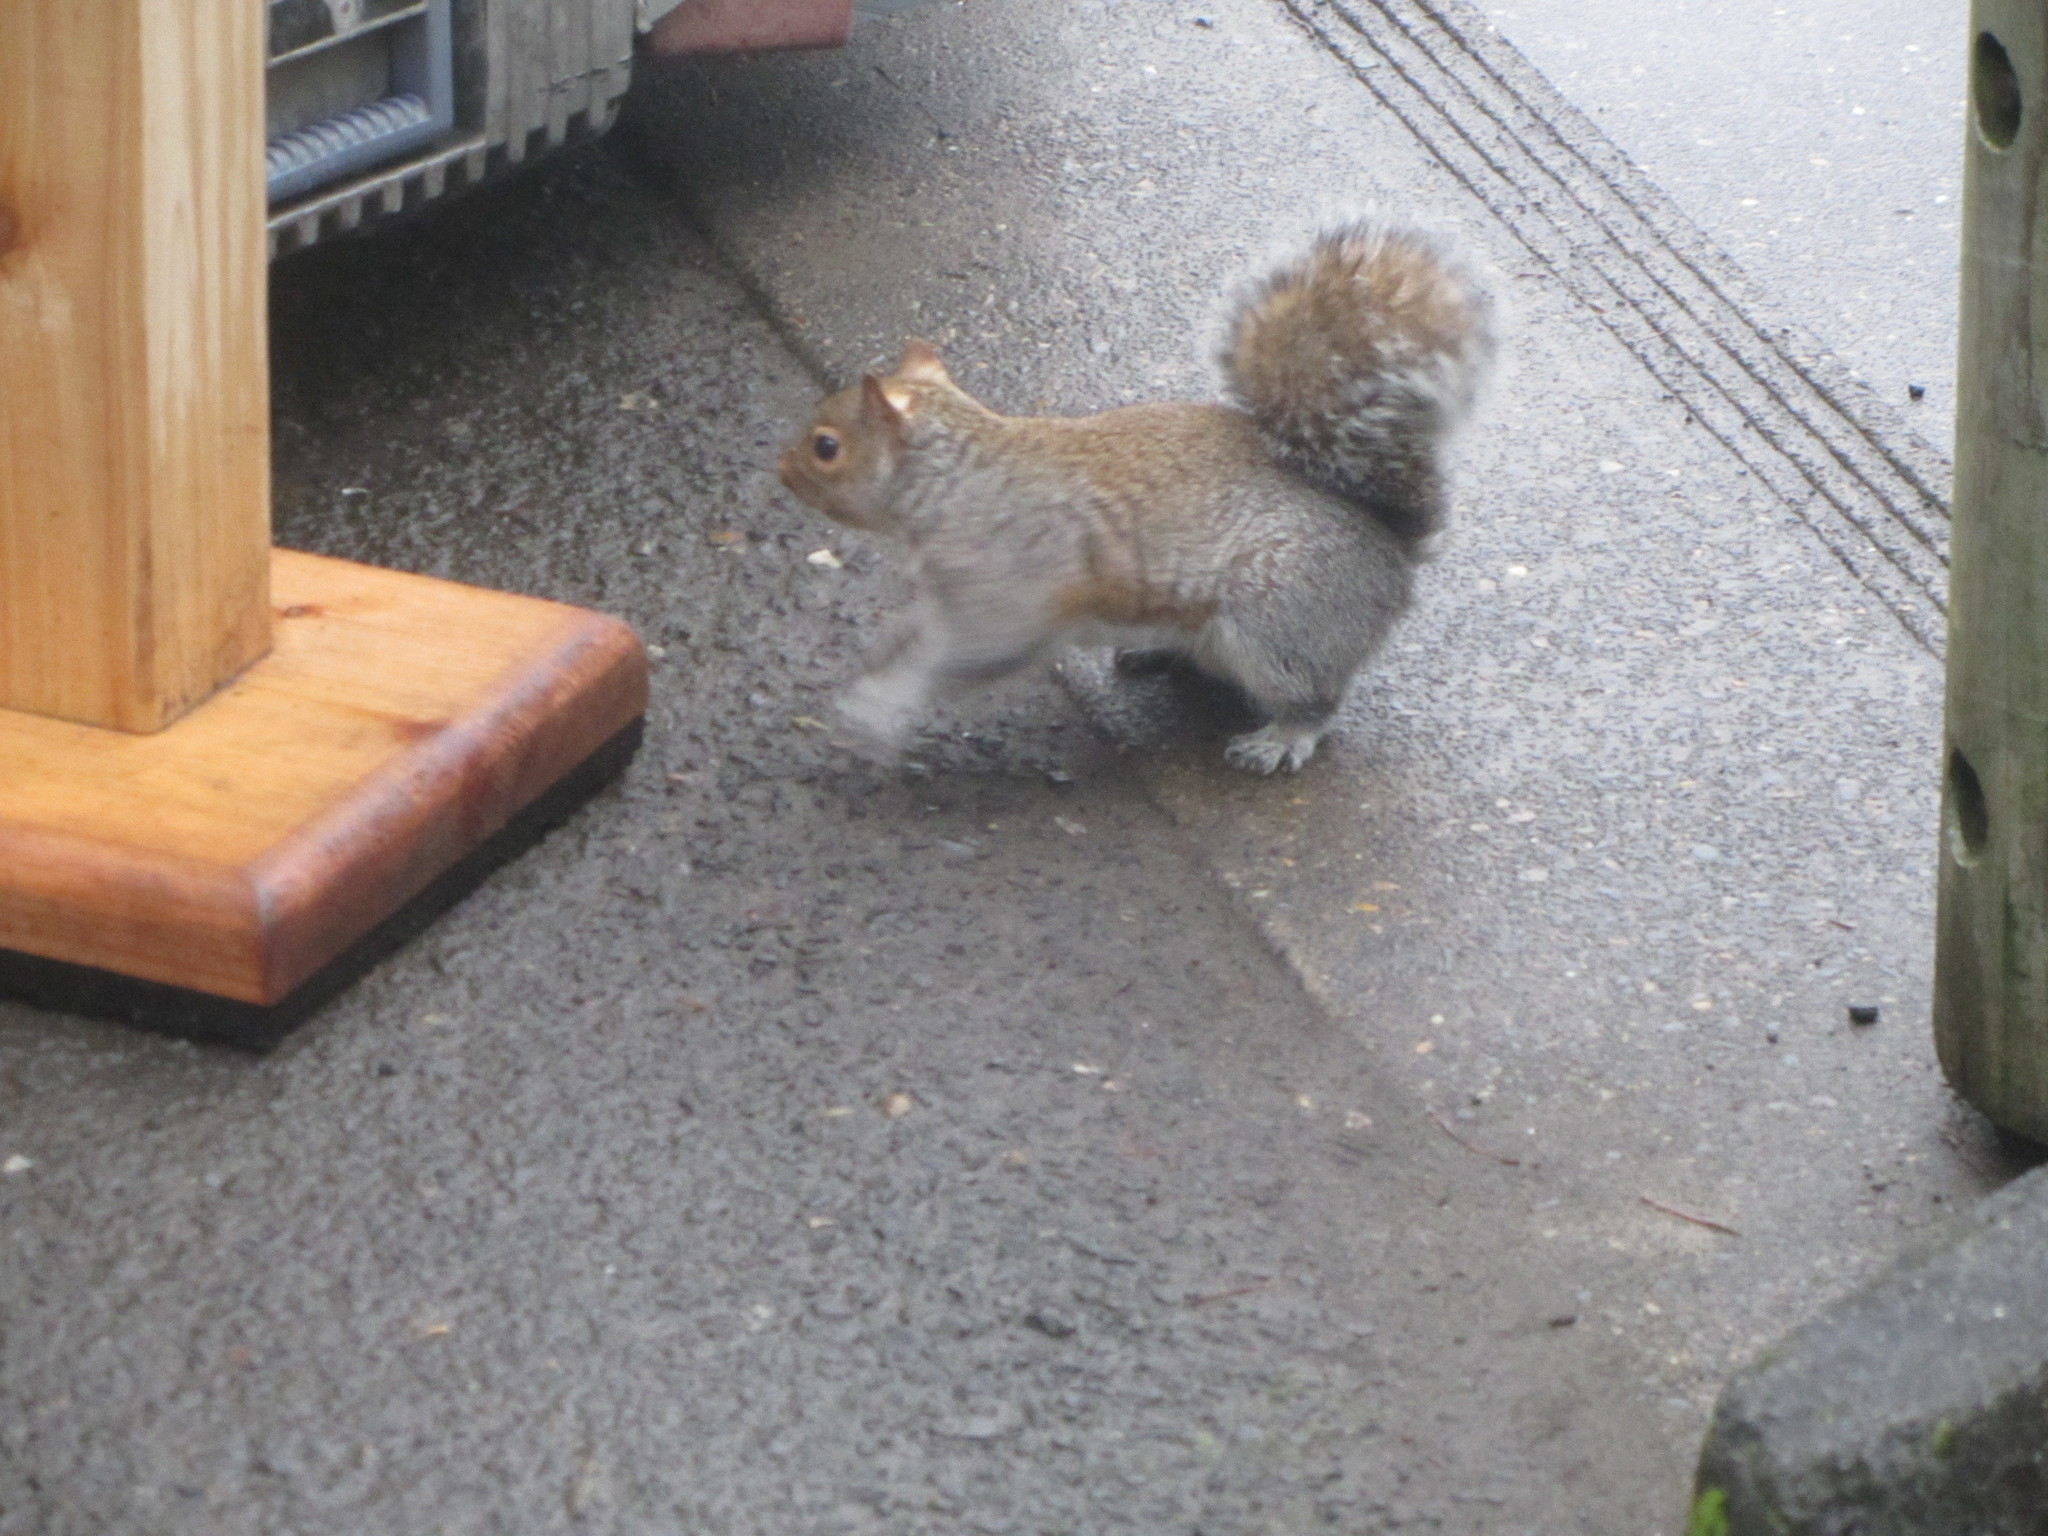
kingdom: Animalia
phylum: Chordata
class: Mammalia
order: Rodentia
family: Sciuridae
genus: Sciurus
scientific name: Sciurus carolinensis
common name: Eastern gray squirrel
